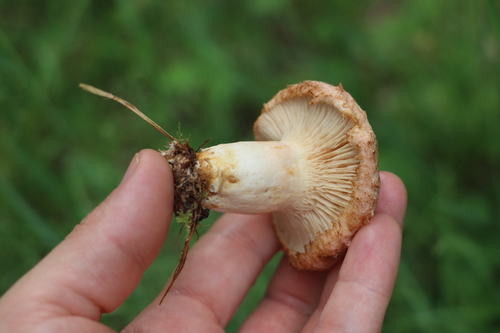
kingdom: Fungi
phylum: Basidiomycota
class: Agaricomycetes
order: Russulales
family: Russulaceae
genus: Lactarius
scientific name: Lactarius torminosus
